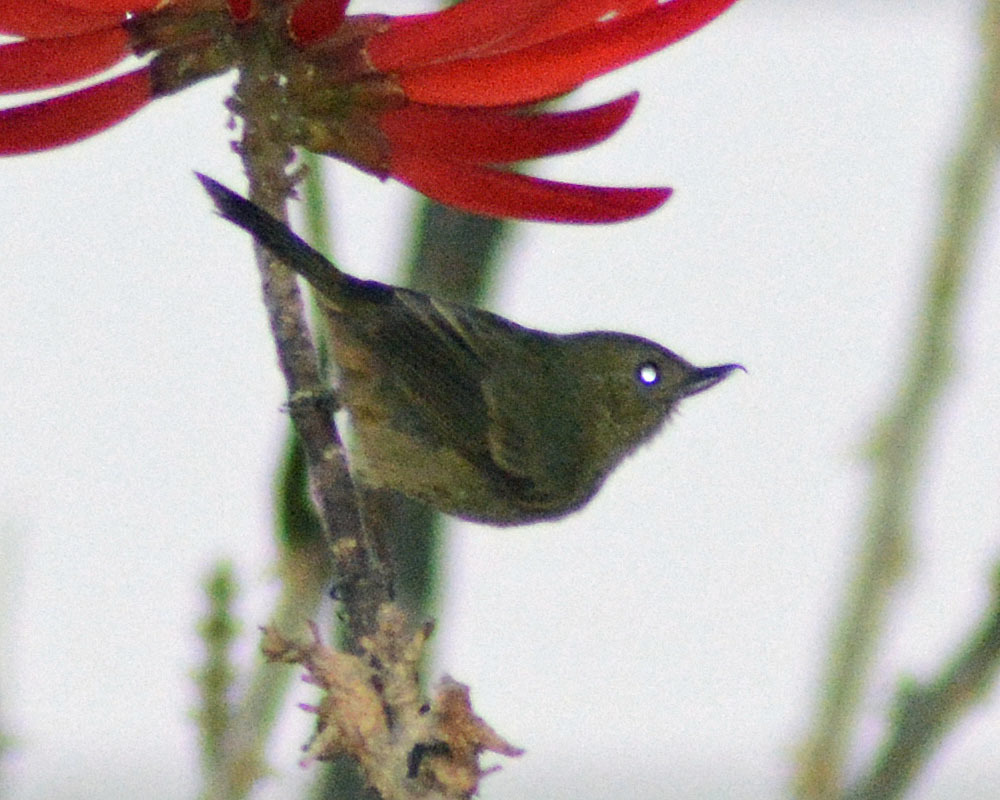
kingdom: Animalia
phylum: Chordata
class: Aves
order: Passeriformes
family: Thraupidae
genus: Diglossa
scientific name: Diglossa baritula
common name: Cinnamon-bellied flowerpiercer
